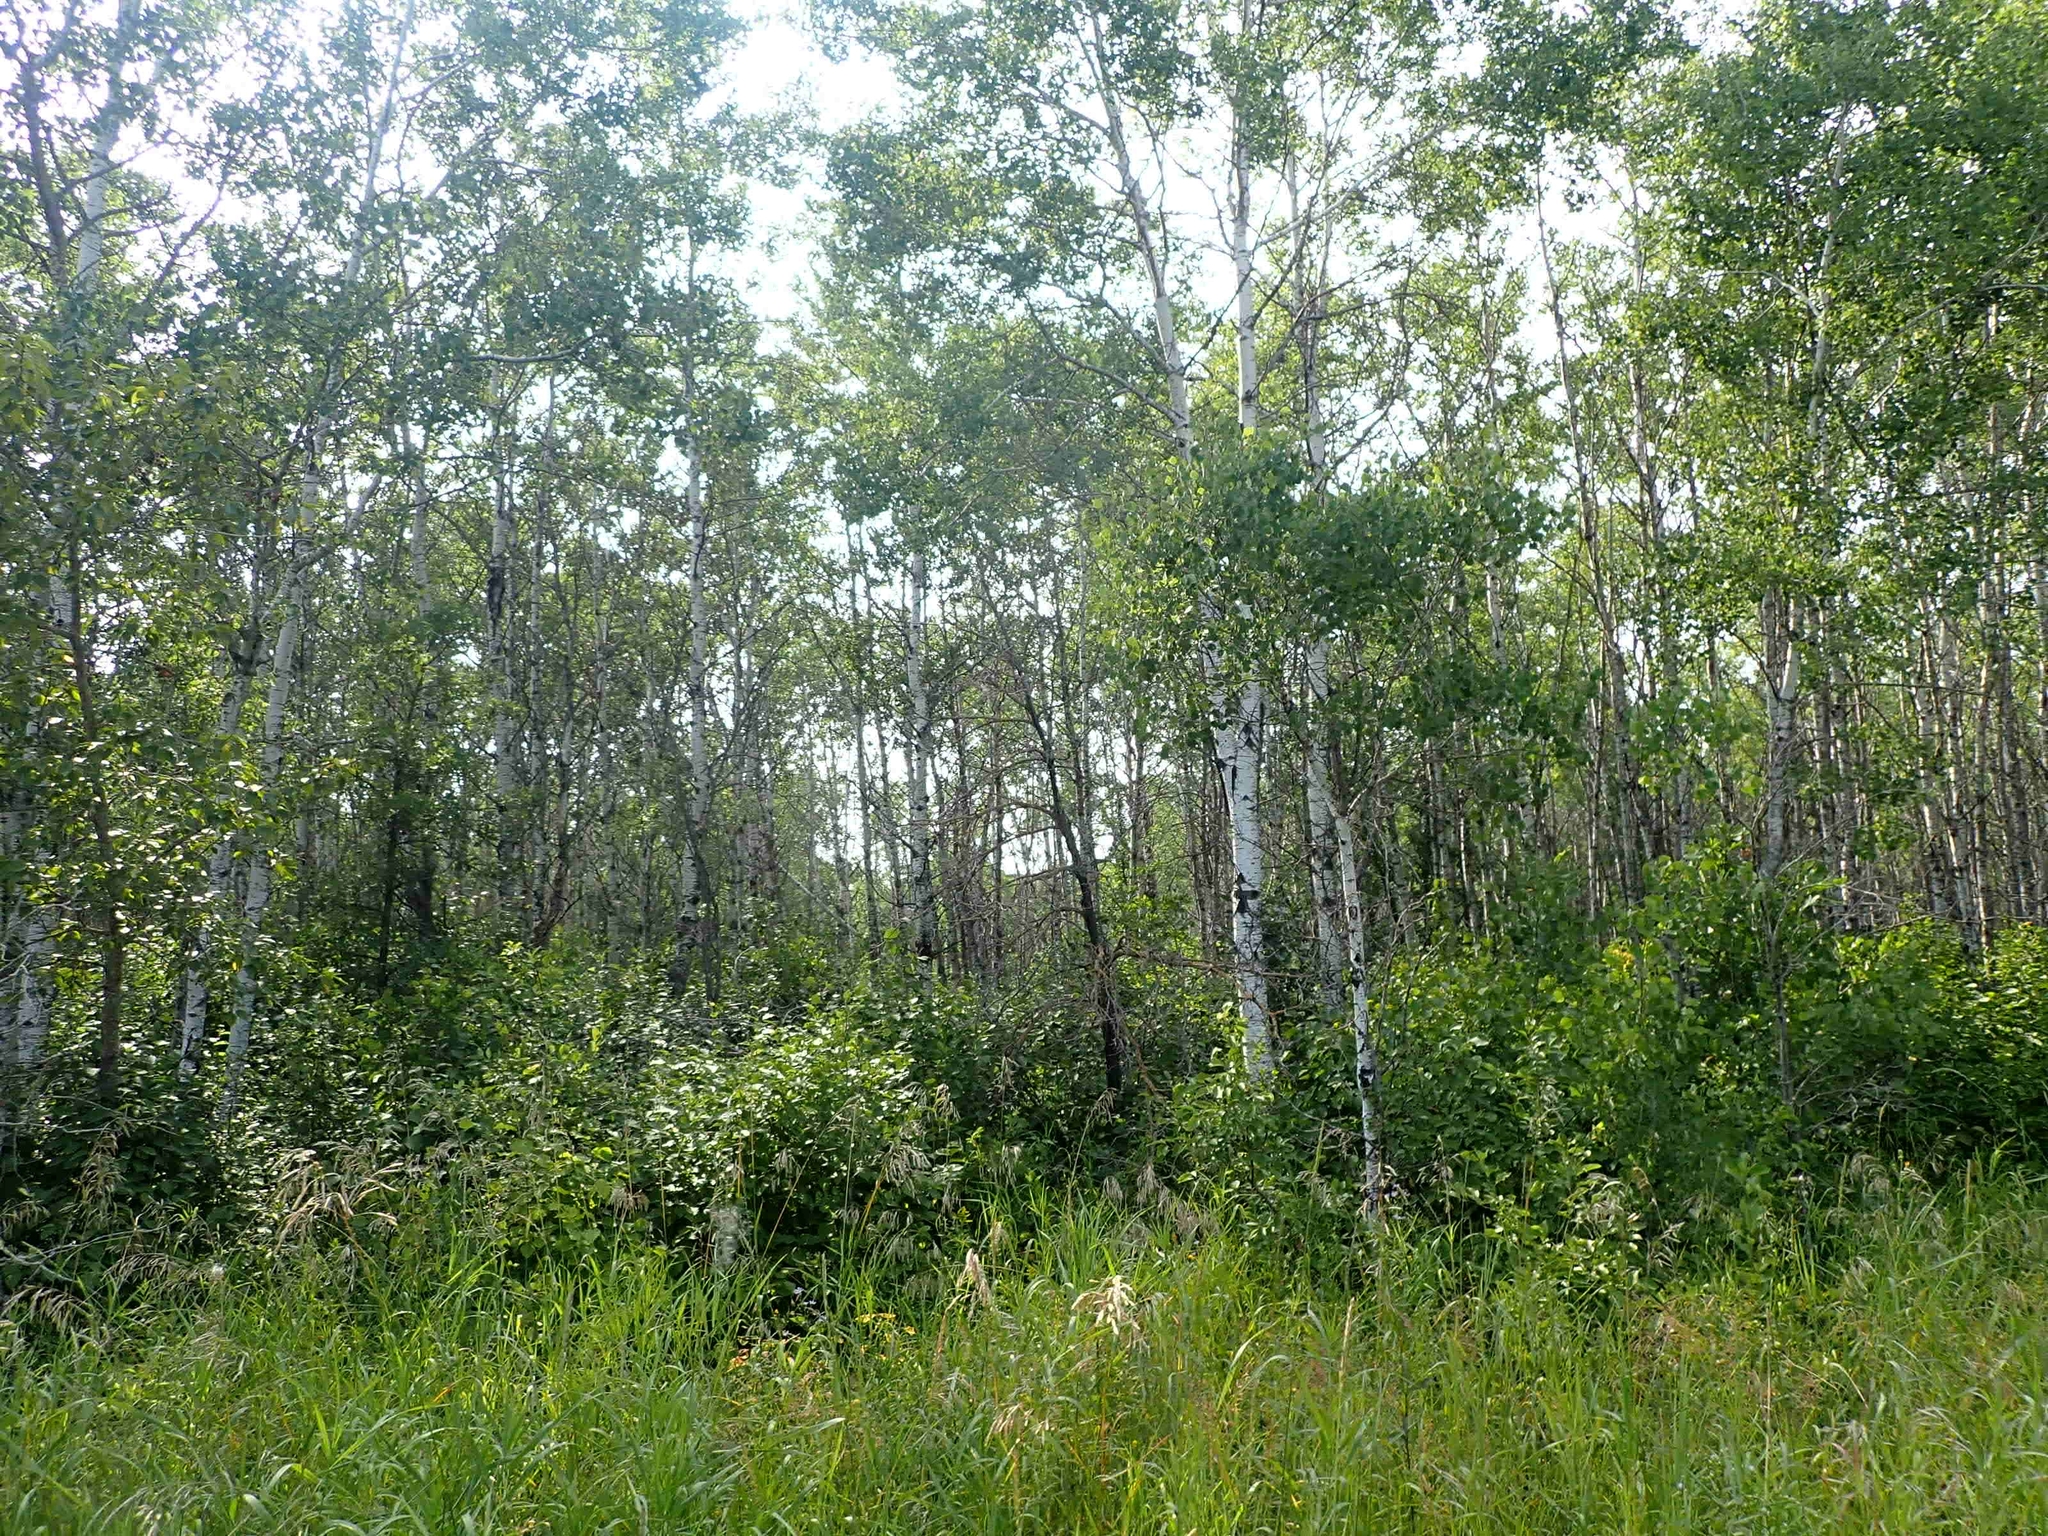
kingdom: Plantae
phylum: Tracheophyta
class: Magnoliopsida
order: Malpighiales
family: Salicaceae
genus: Populus
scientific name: Populus tremuloides
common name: Quaking aspen
